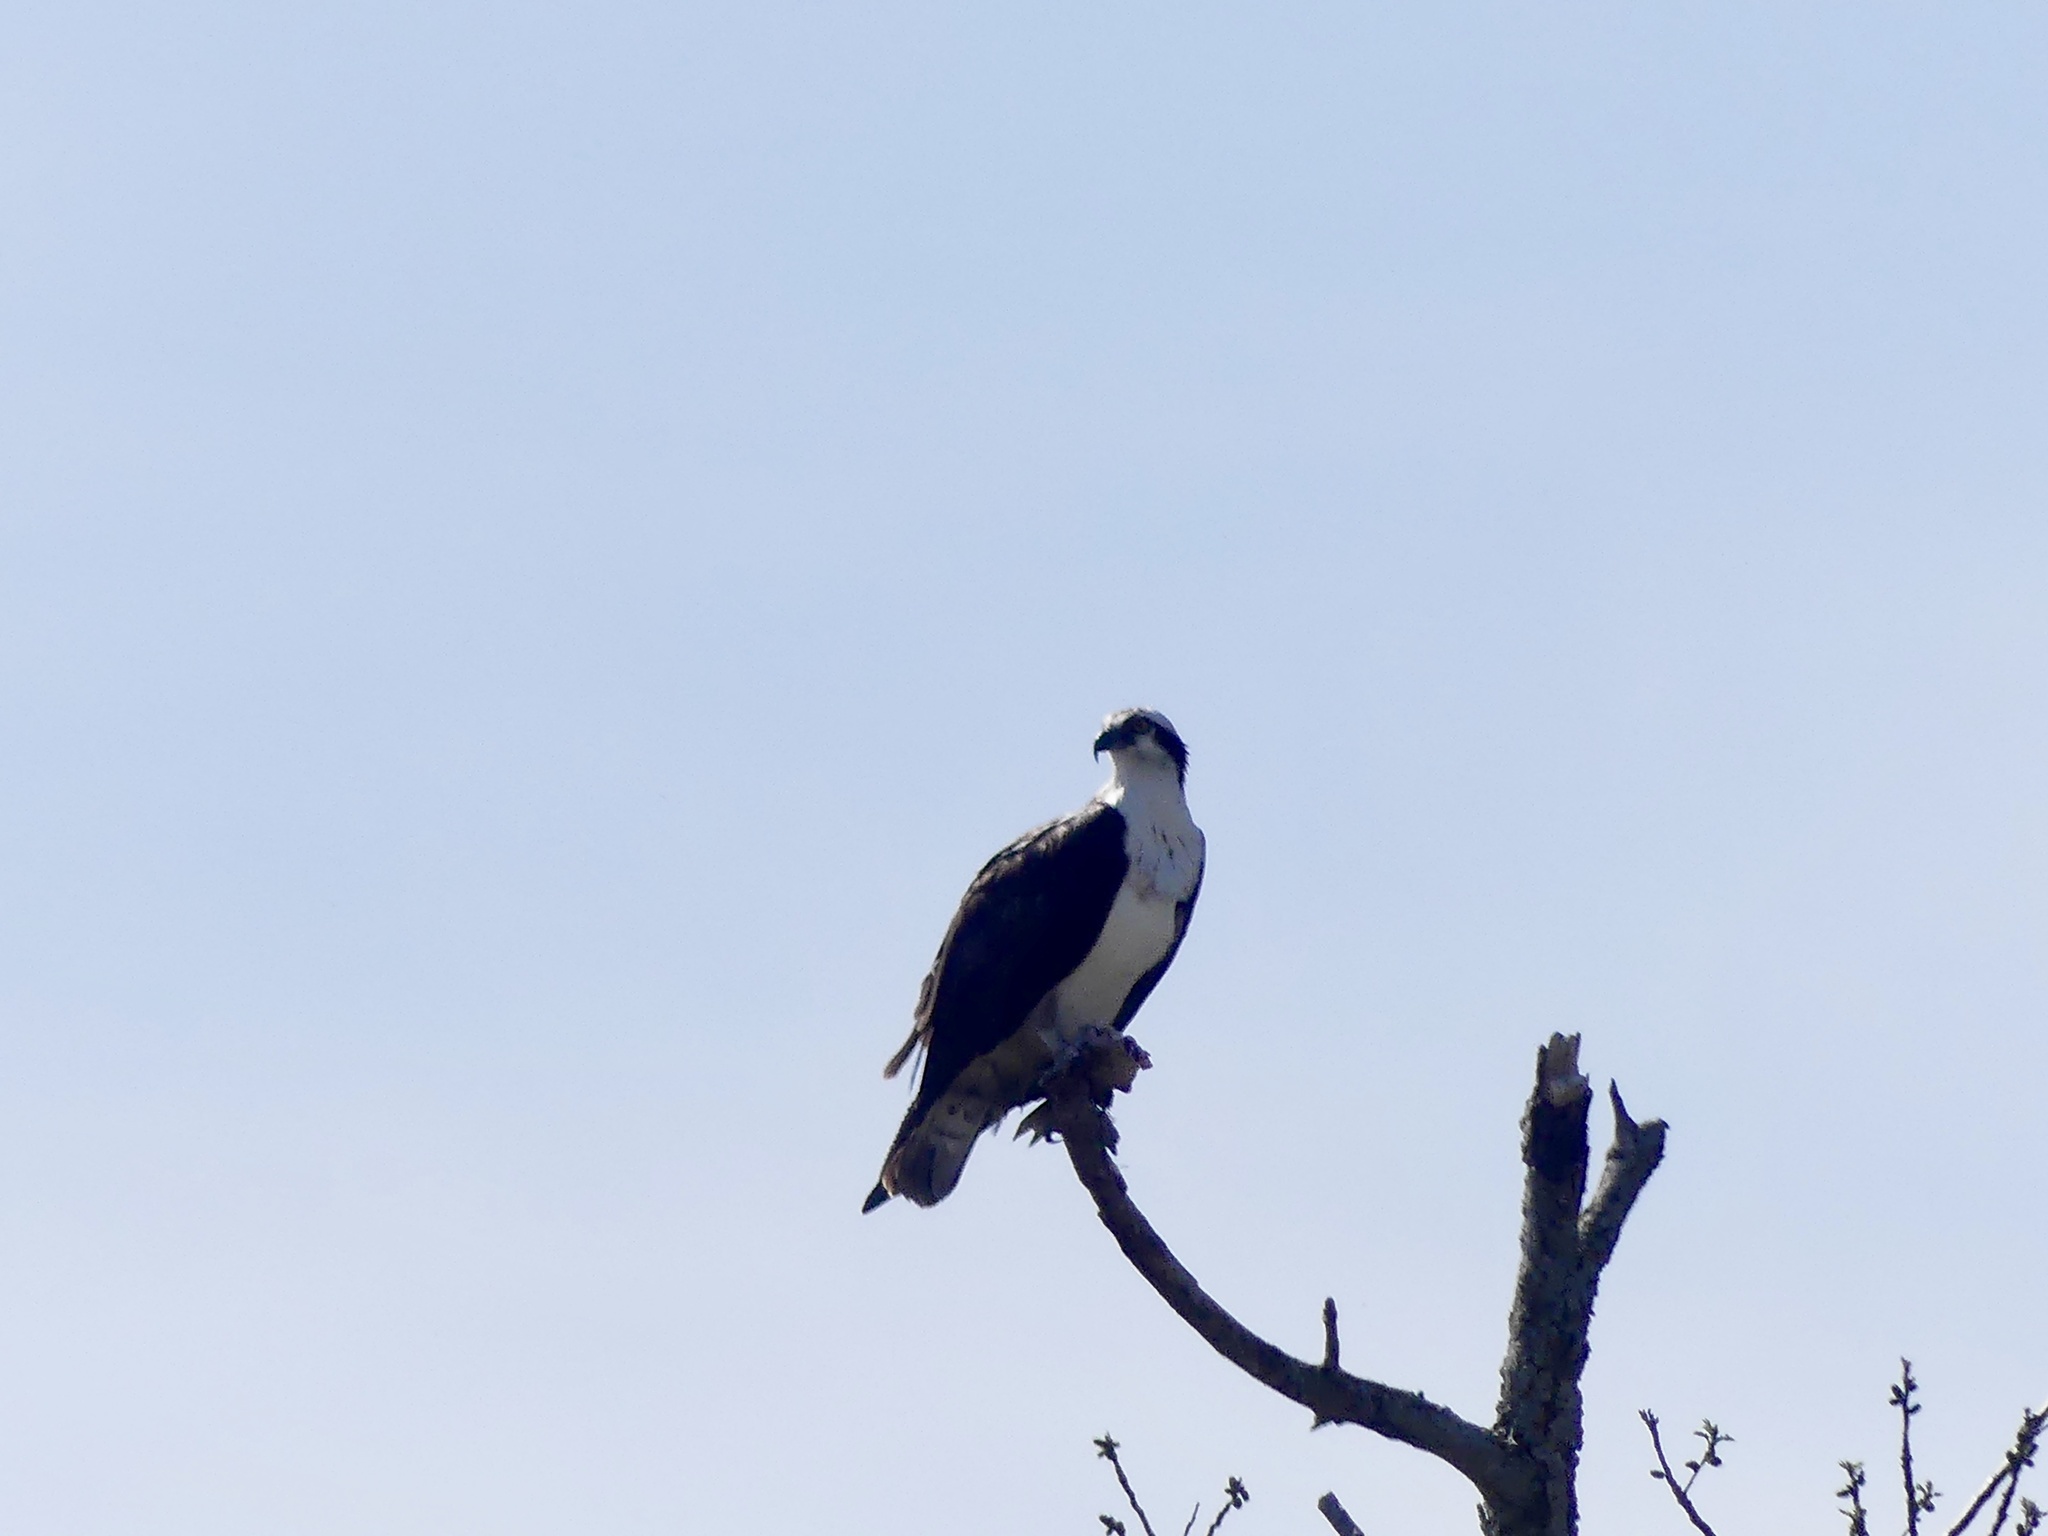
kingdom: Animalia
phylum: Chordata
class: Aves
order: Accipitriformes
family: Pandionidae
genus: Pandion
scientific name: Pandion haliaetus
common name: Osprey
